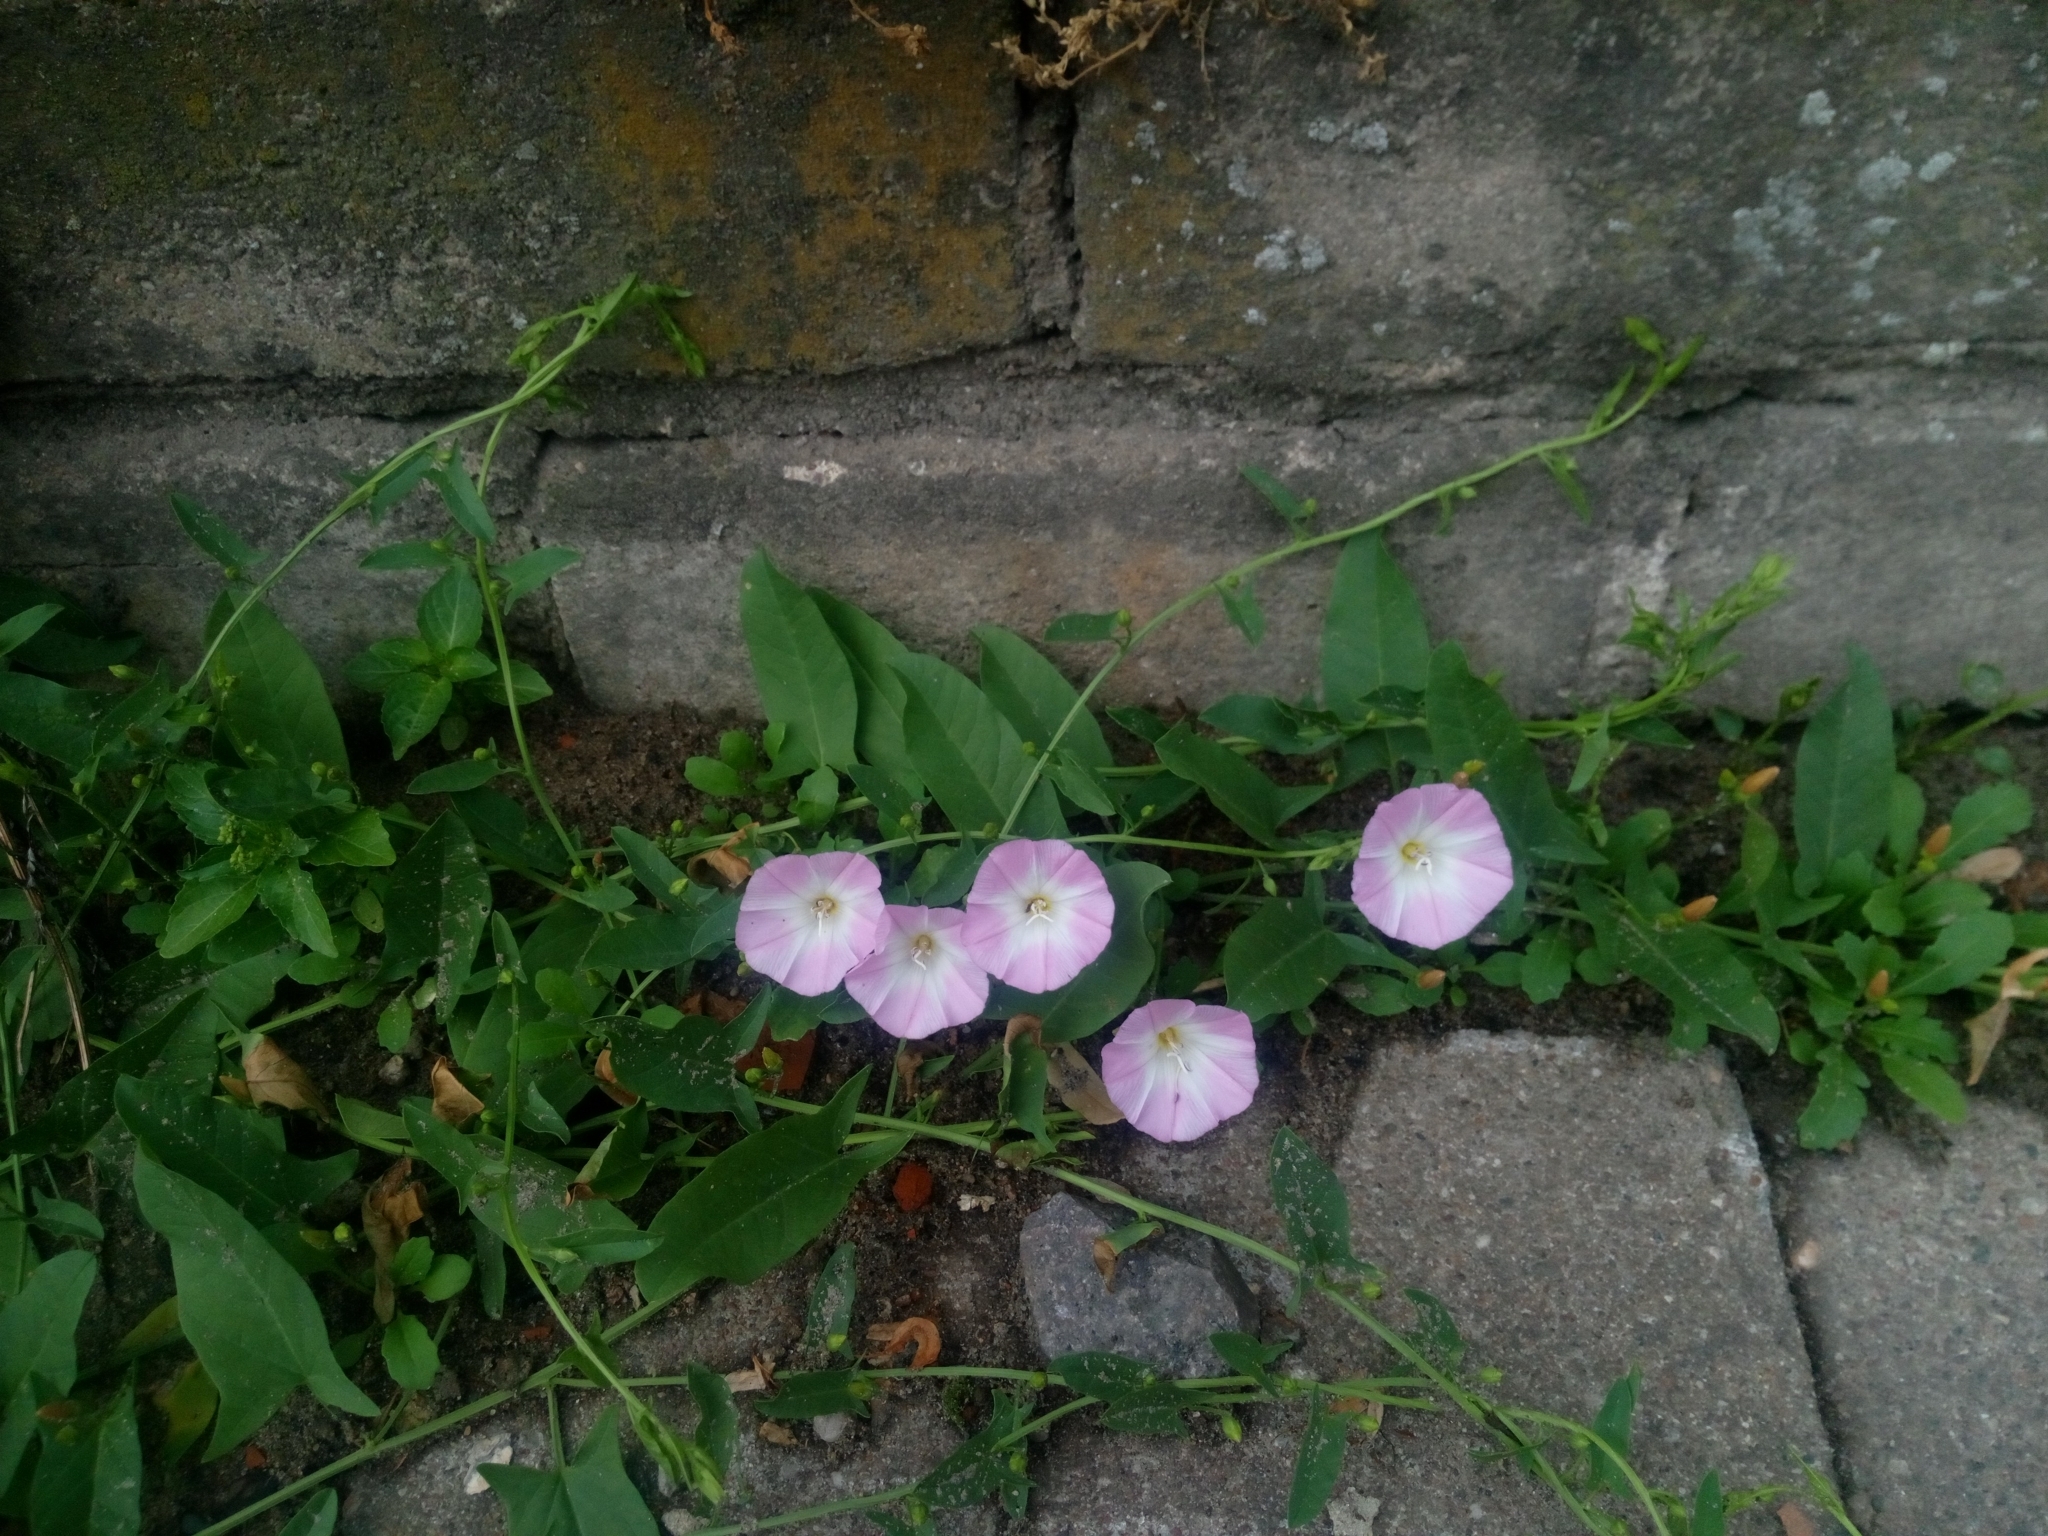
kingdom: Plantae
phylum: Tracheophyta
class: Magnoliopsida
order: Solanales
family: Convolvulaceae
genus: Convolvulus
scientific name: Convolvulus arvensis
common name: Field bindweed
